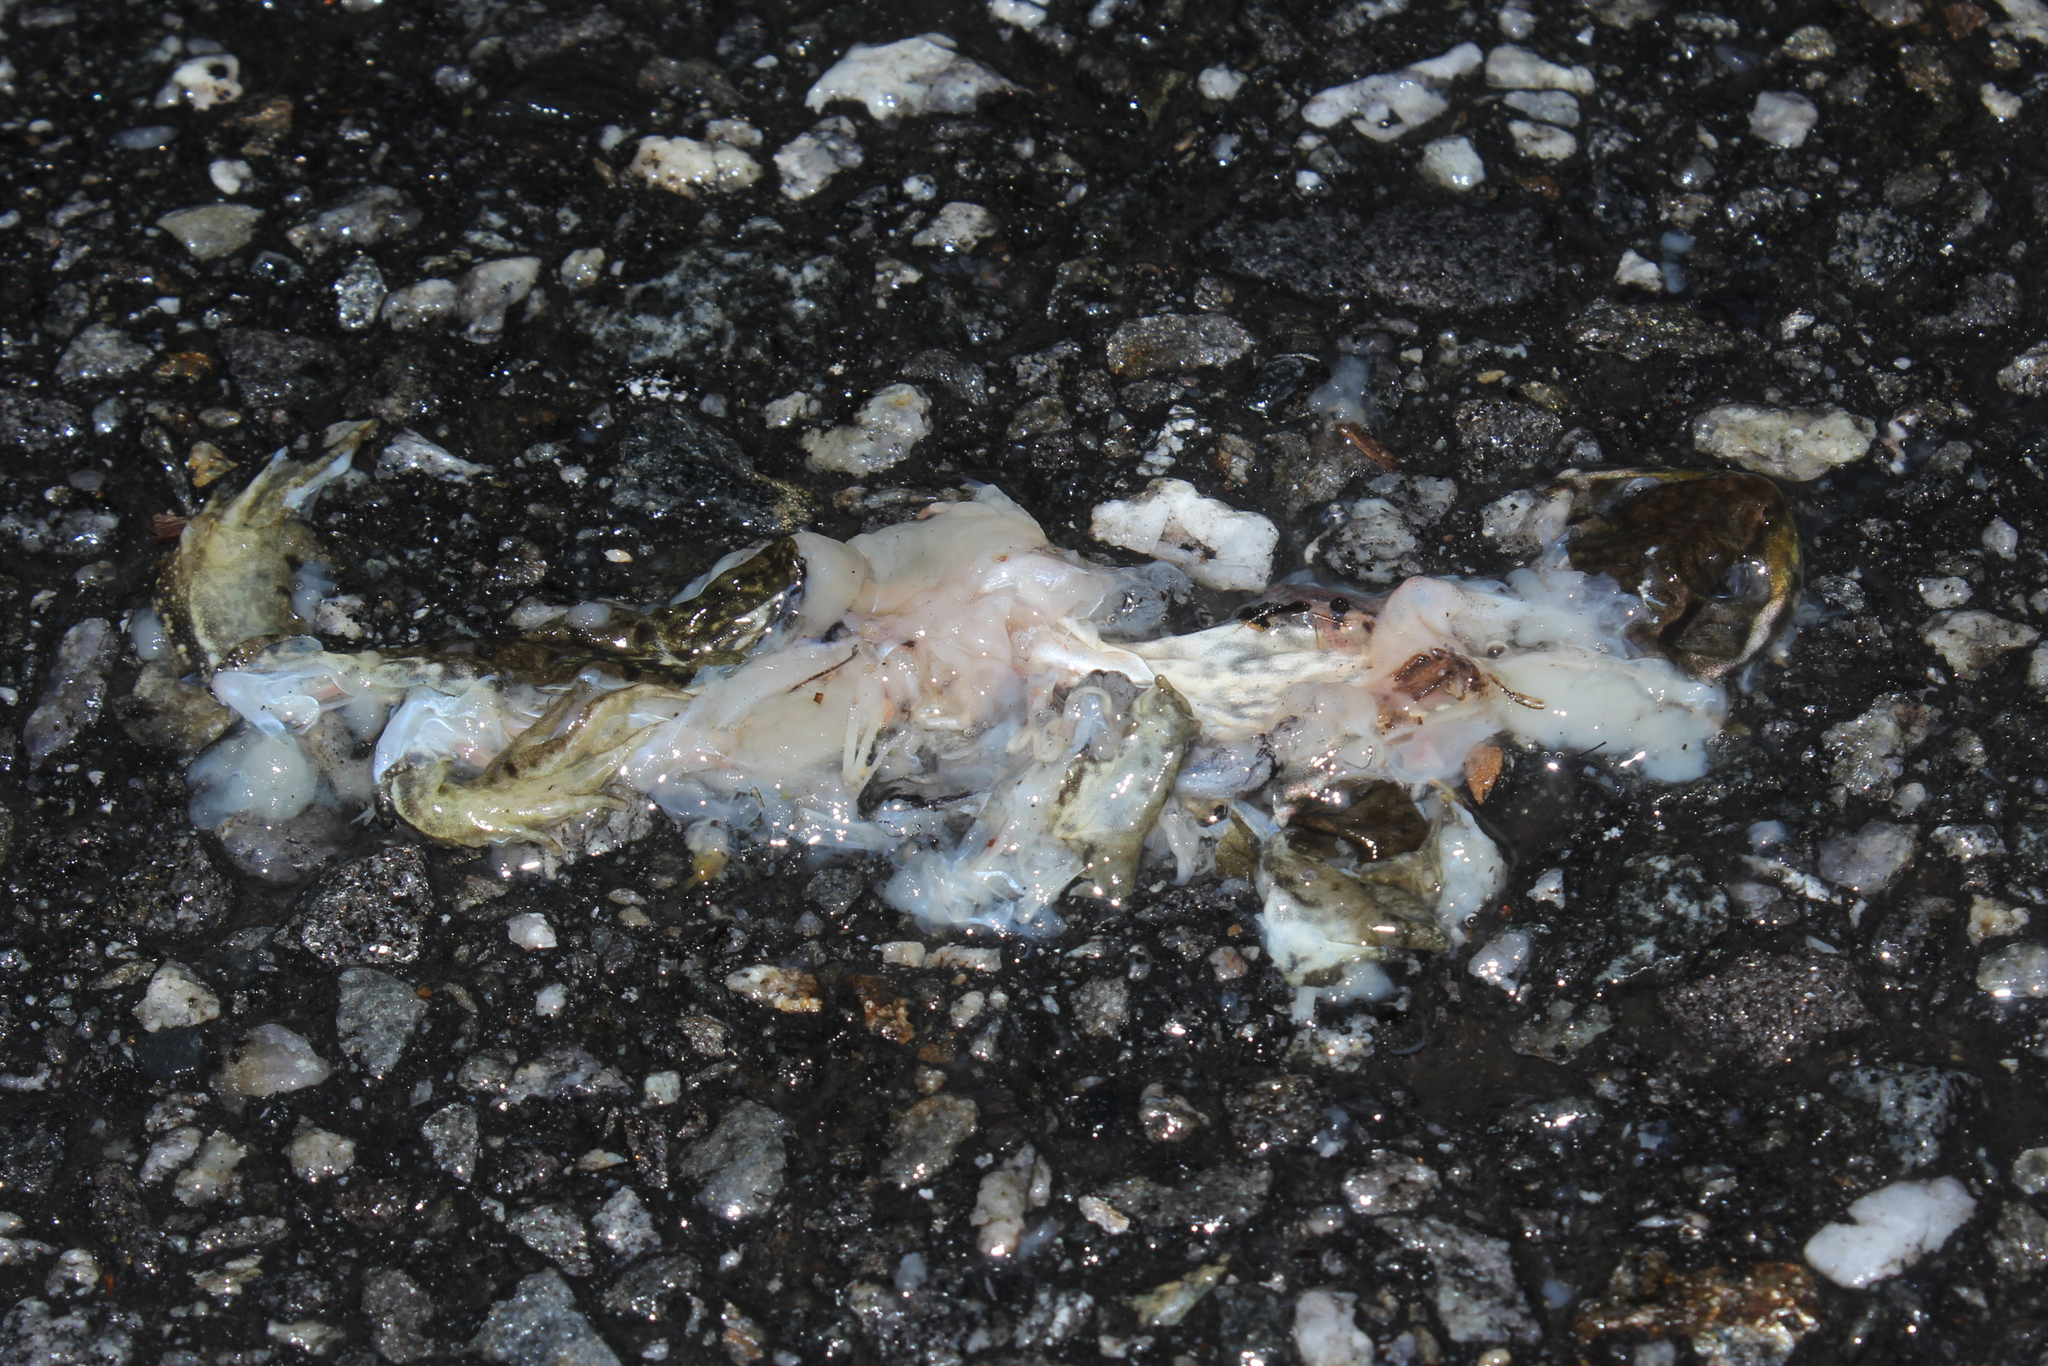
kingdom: Animalia
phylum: Chordata
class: Amphibia
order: Anura
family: Ranidae
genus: Lithobates
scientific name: Lithobates clamitans
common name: Green frog
